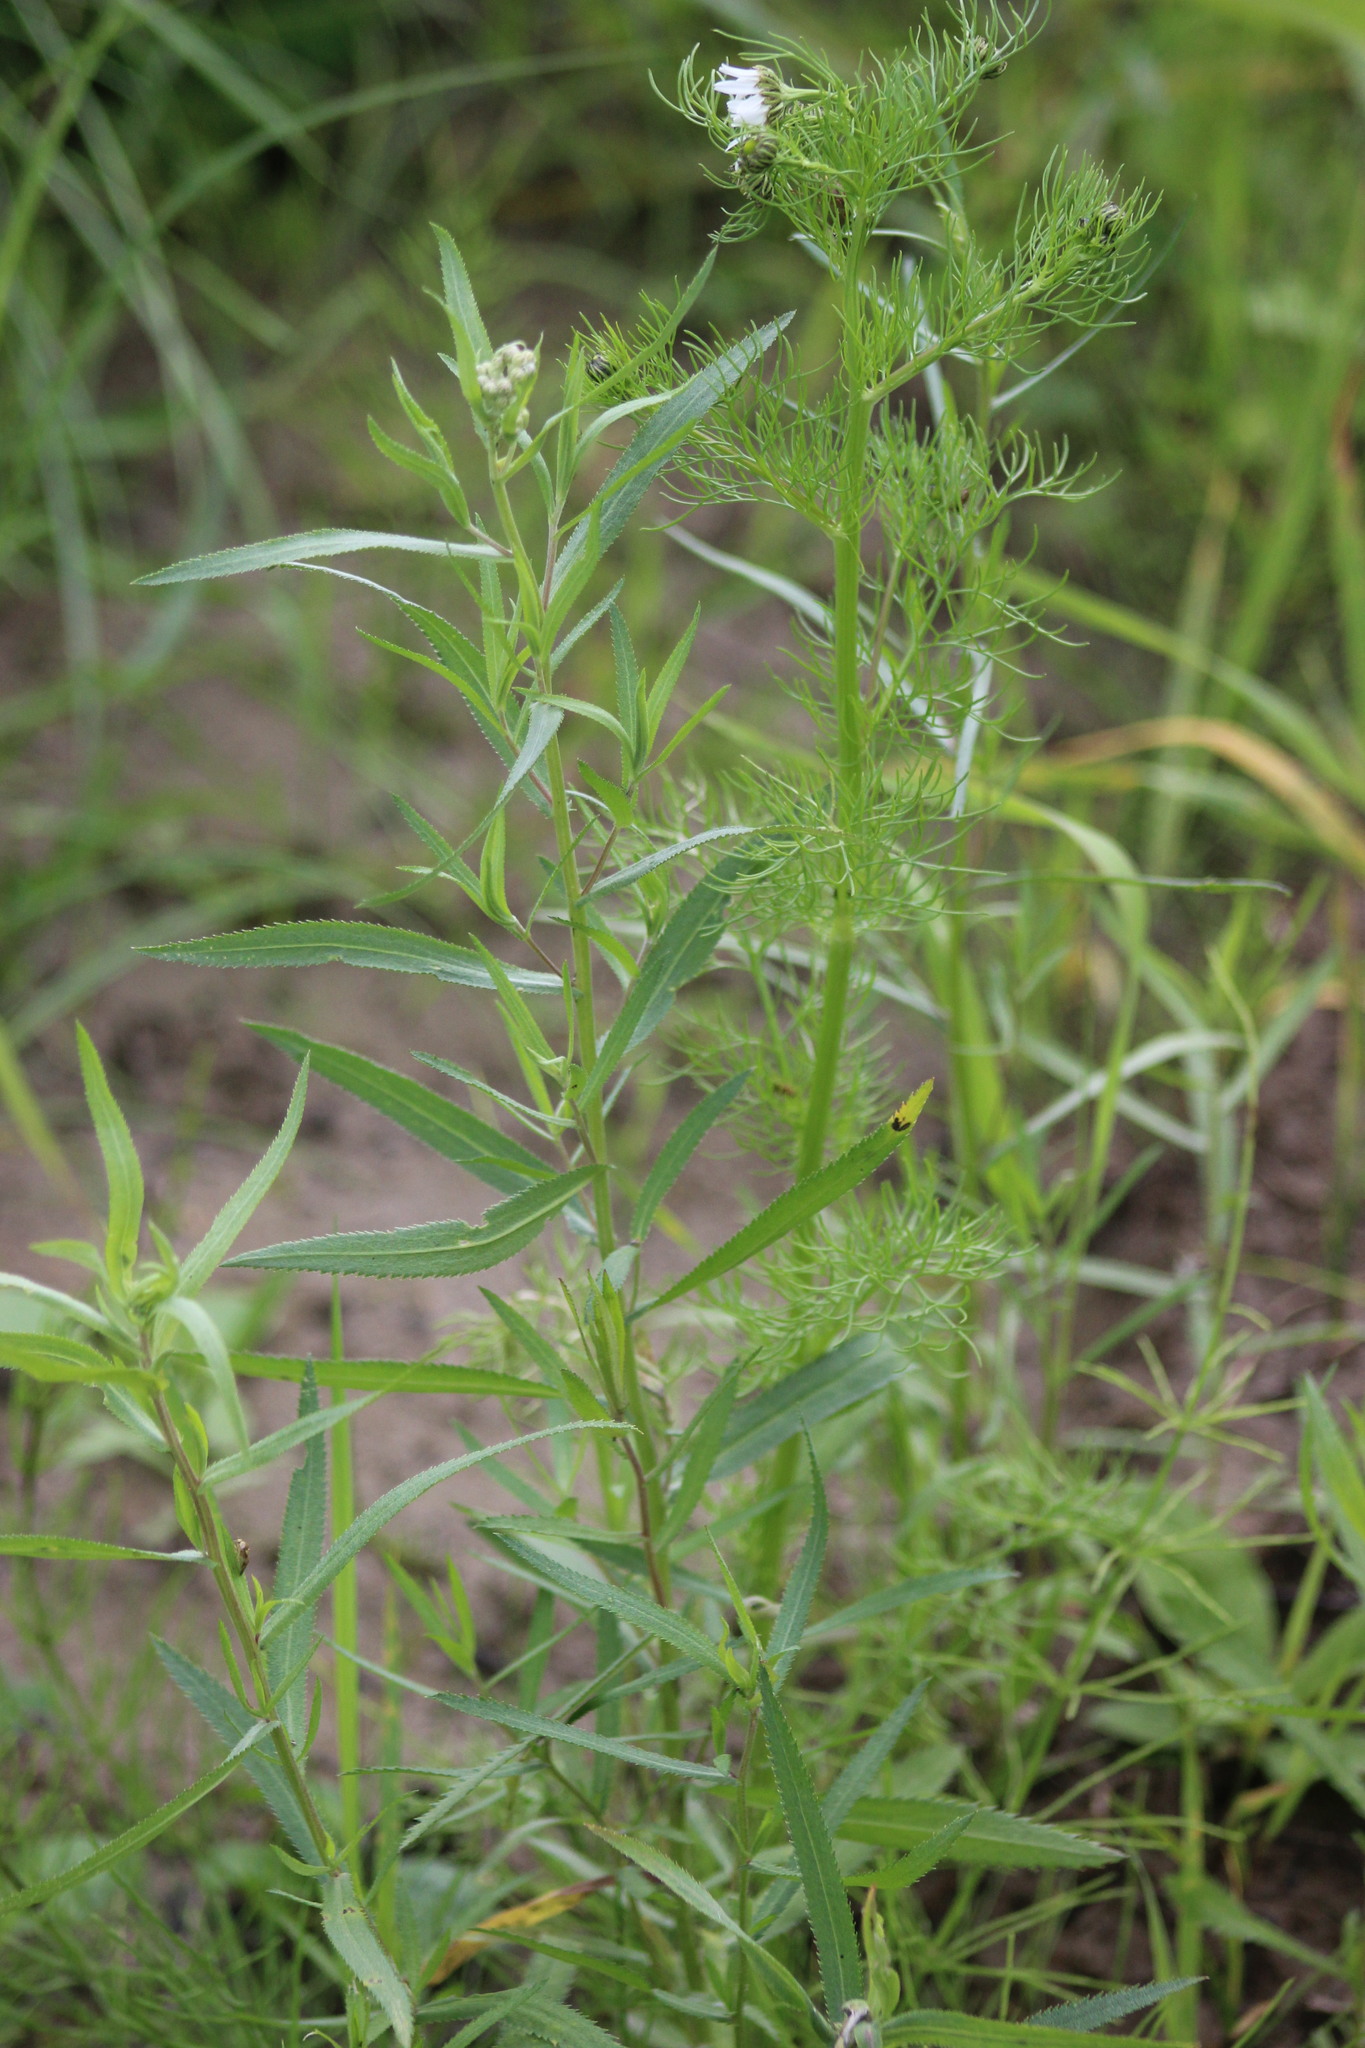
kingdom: Plantae
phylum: Tracheophyta
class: Magnoliopsida
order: Asterales
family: Asteraceae
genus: Achillea
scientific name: Achillea salicifolia
